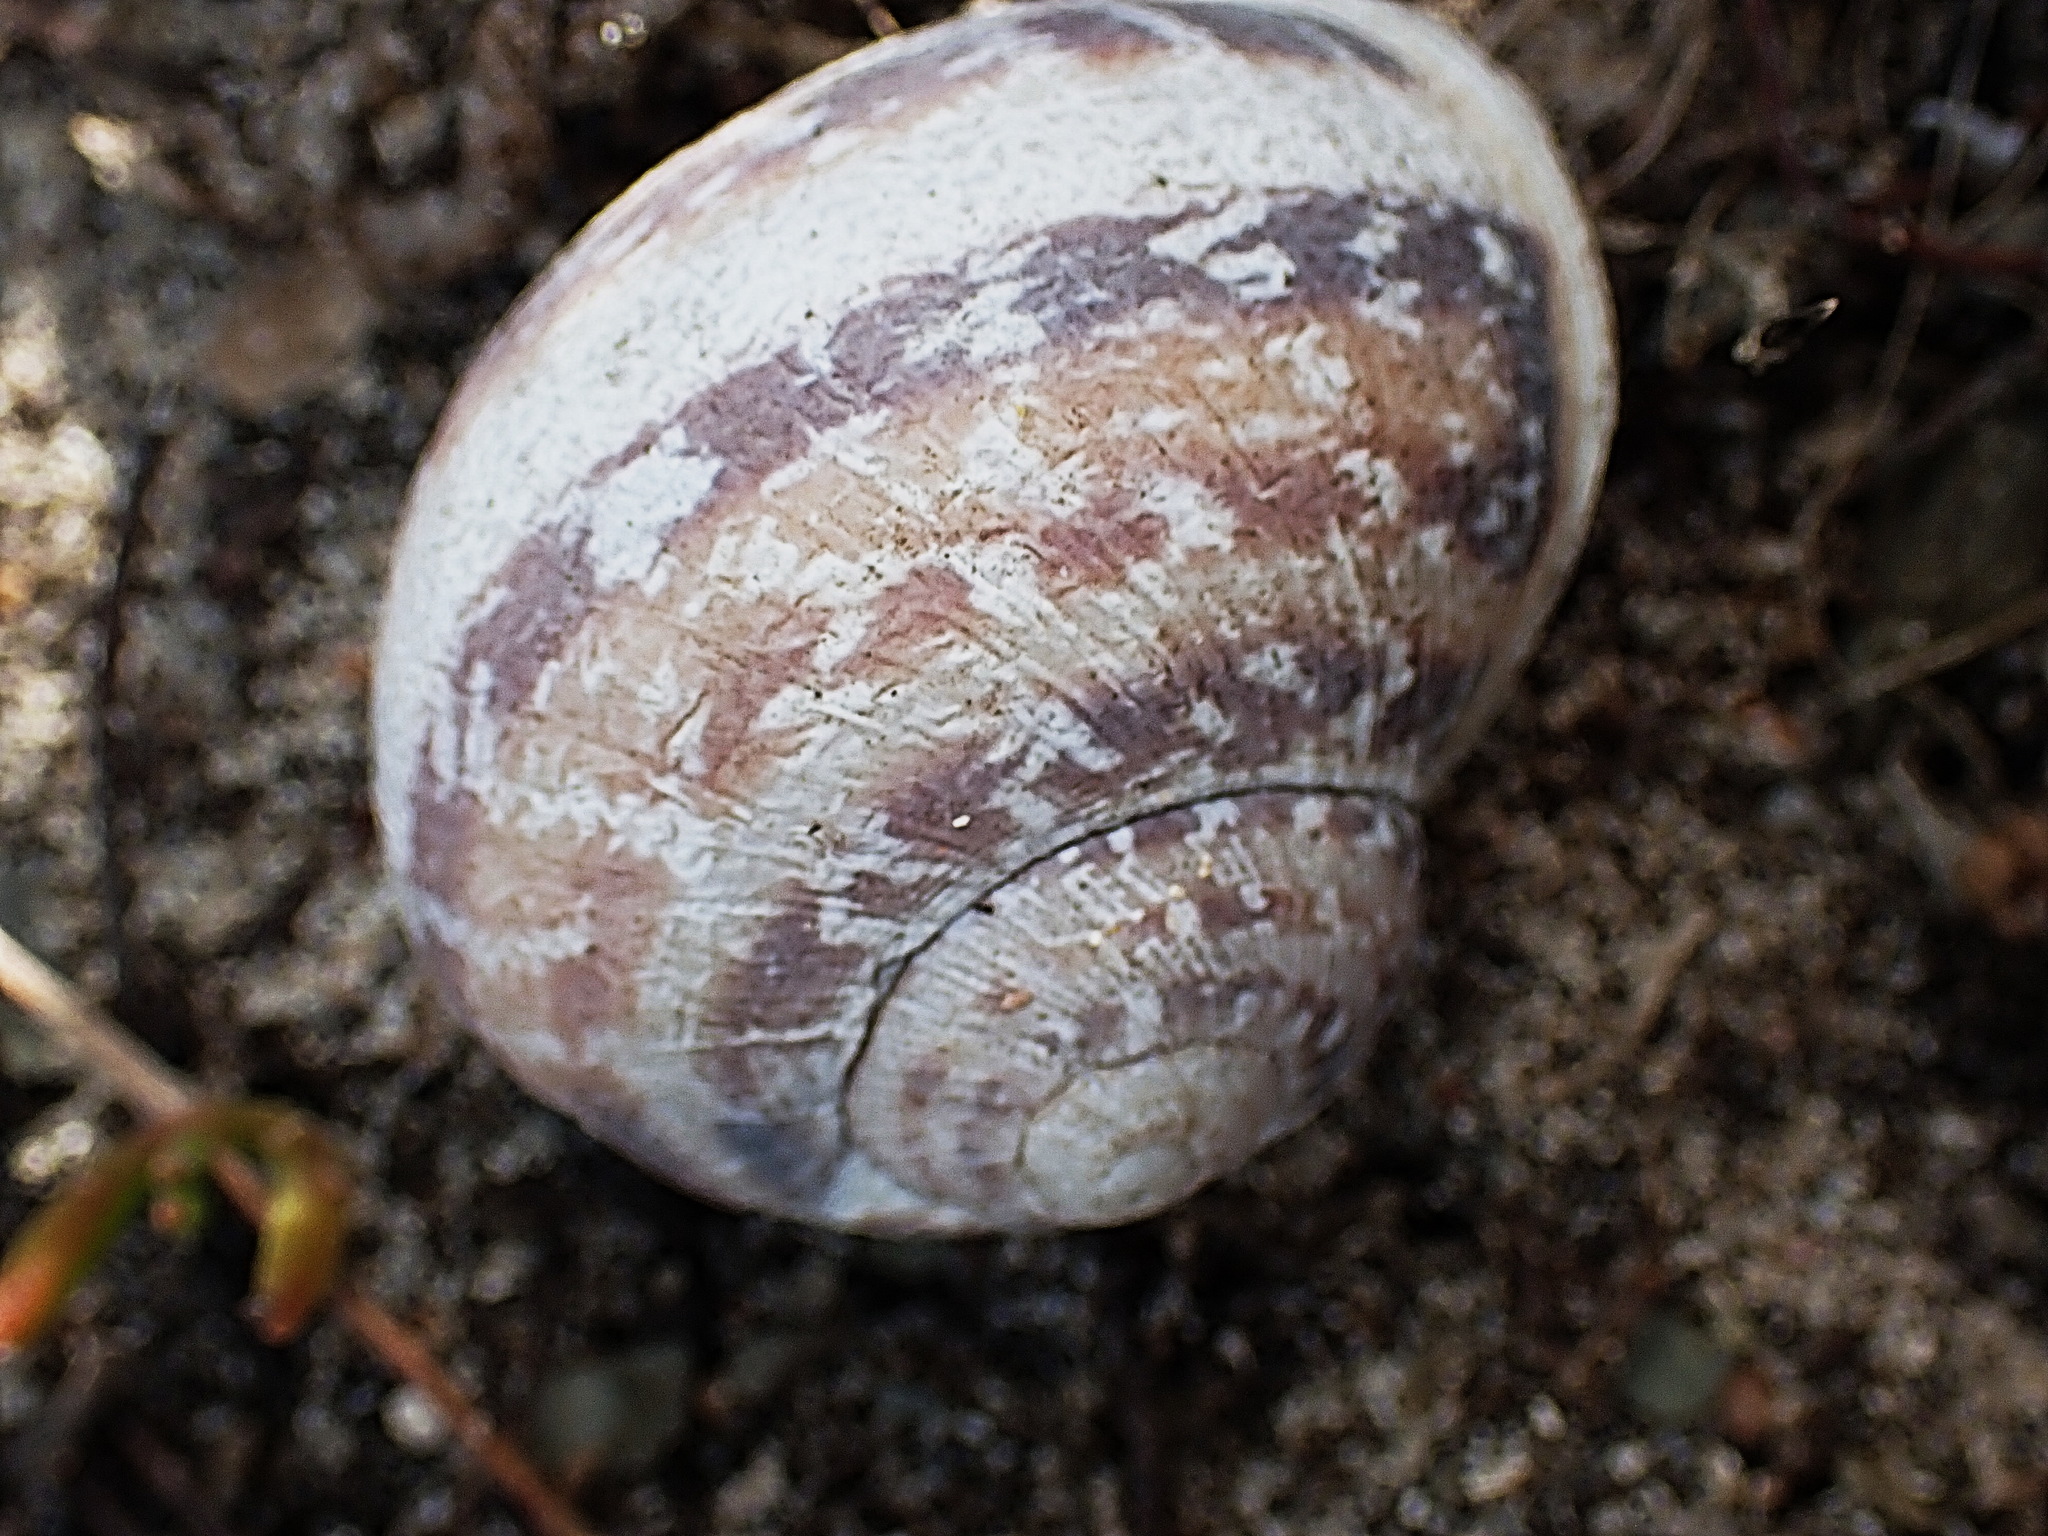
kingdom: Animalia
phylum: Mollusca
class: Gastropoda
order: Stylommatophora
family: Helicidae
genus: Cornu
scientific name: Cornu aspersum
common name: Brown garden snail
